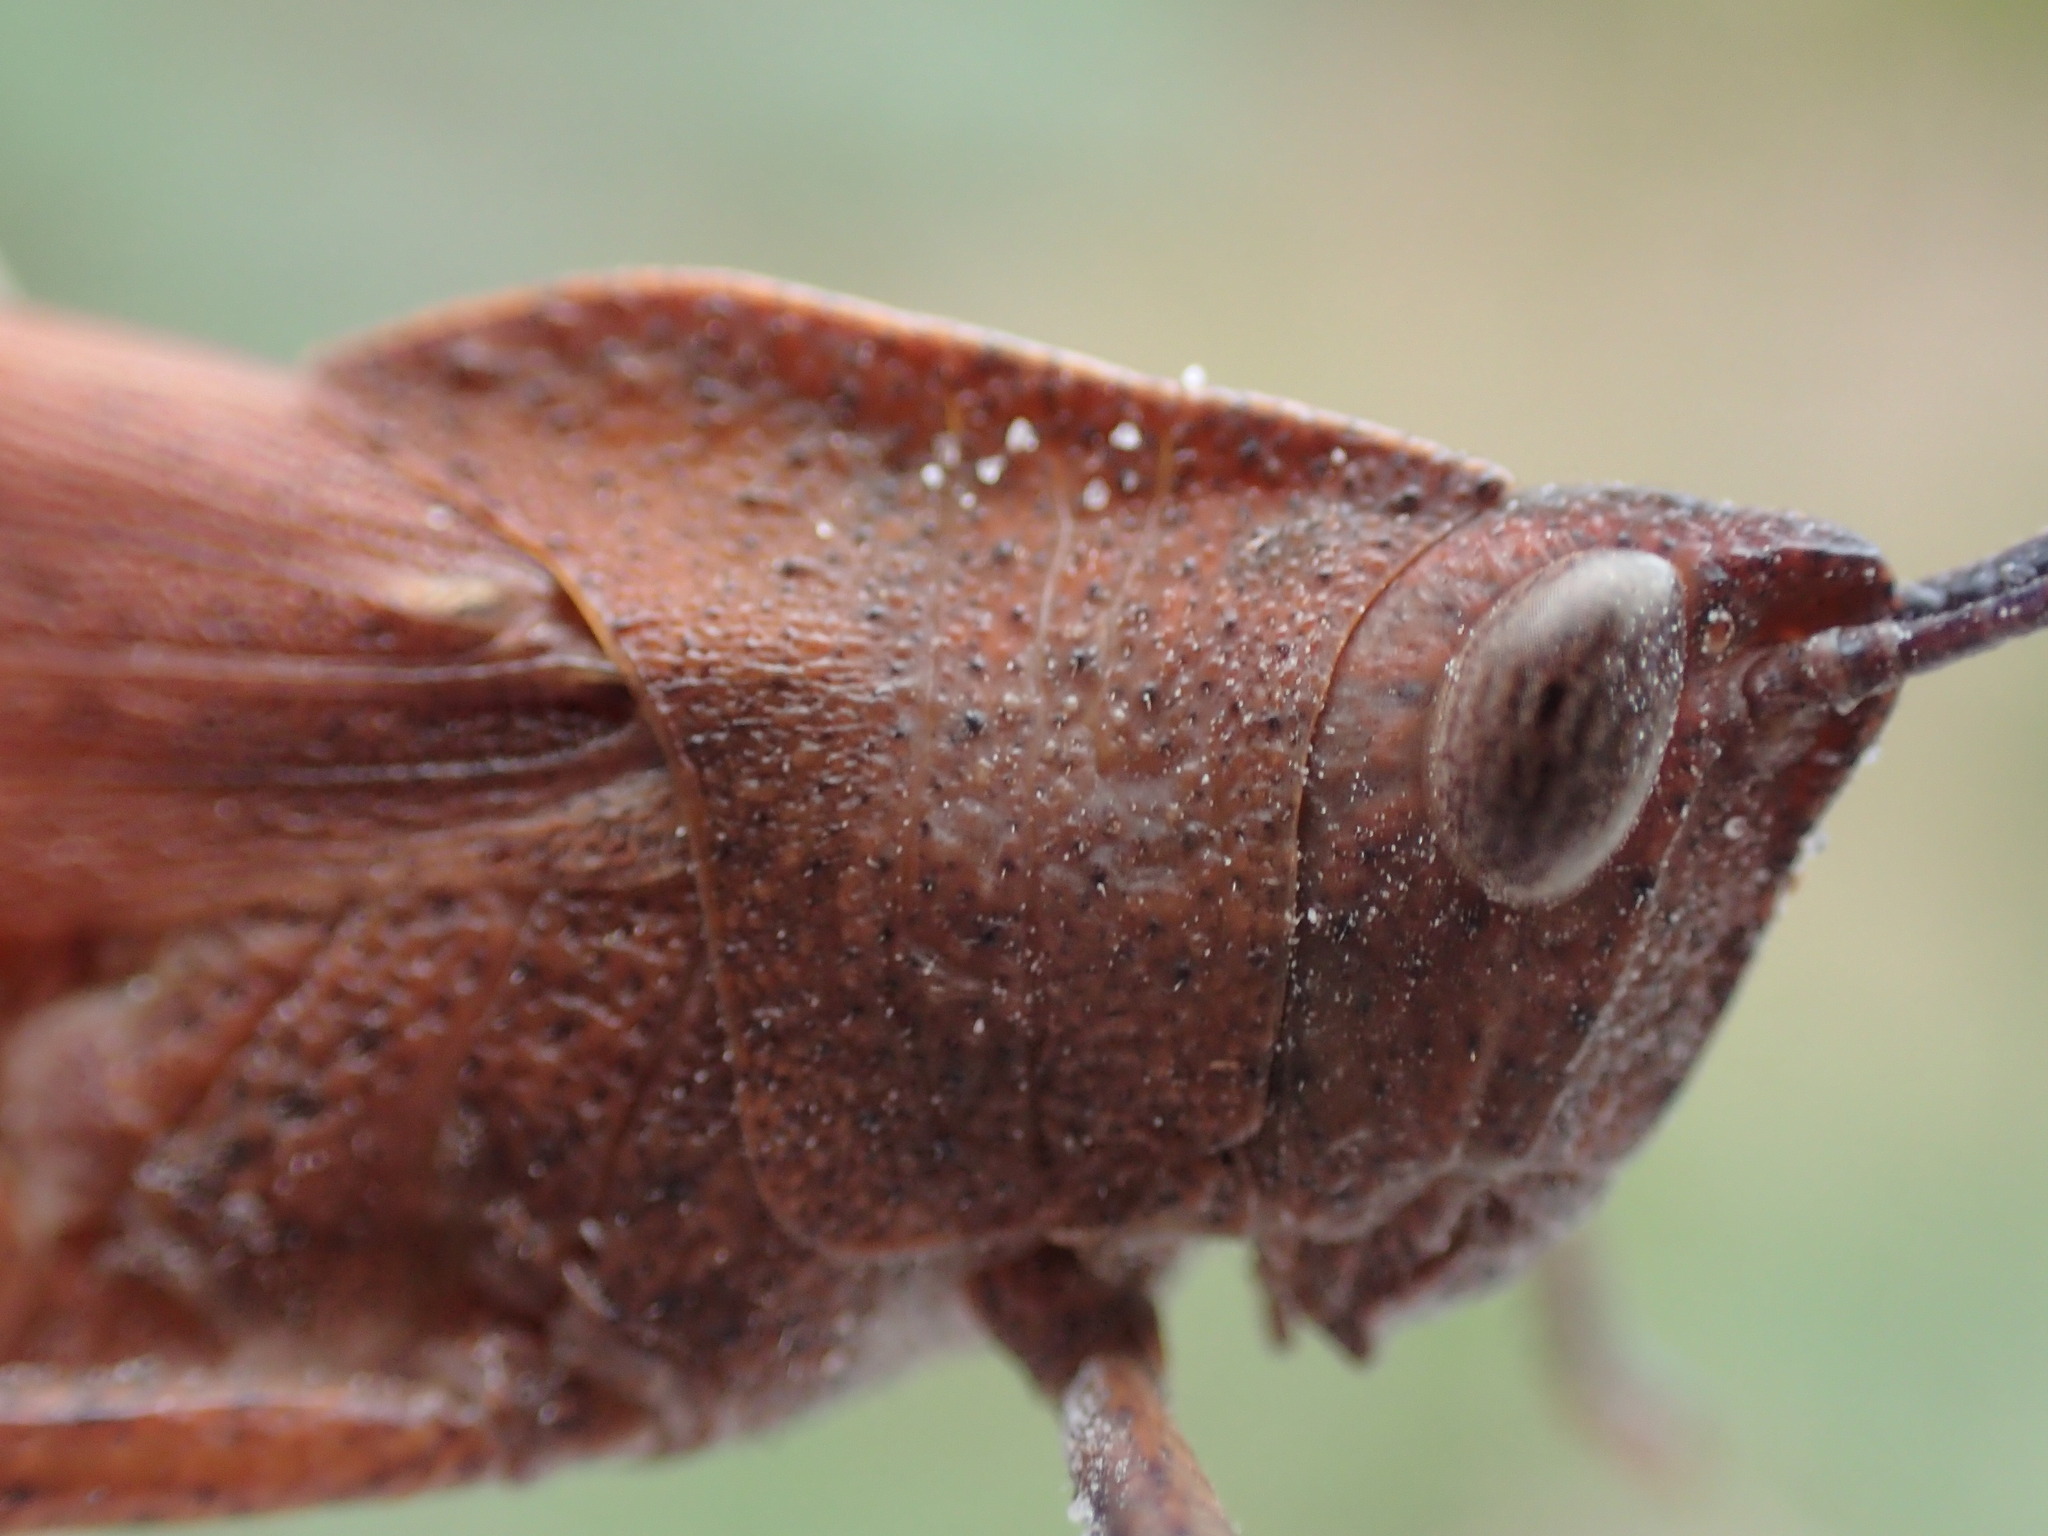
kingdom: Animalia
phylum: Arthropoda
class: Insecta
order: Orthoptera
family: Acrididae
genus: Goniaea
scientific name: Goniaea australasiae
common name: Gumleaf grasshopper
